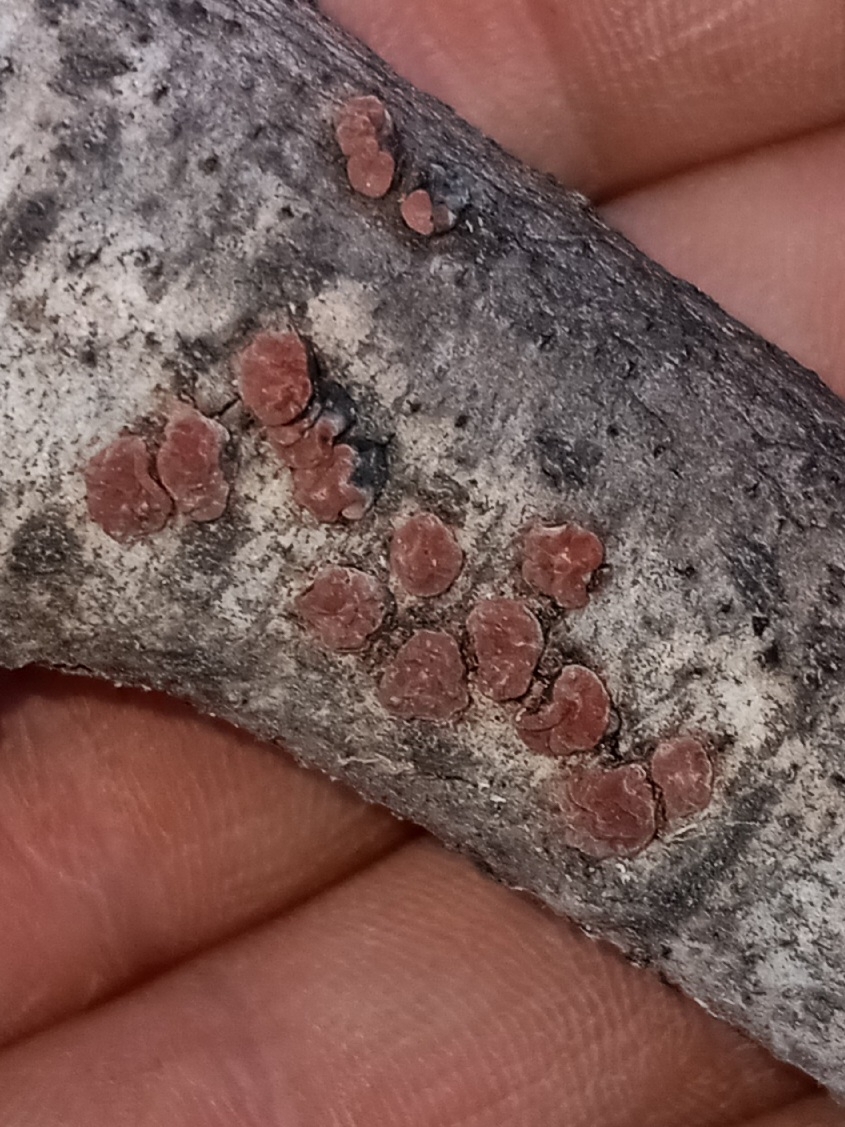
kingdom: Fungi
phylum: Basidiomycota
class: Agaricomycetes
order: Russulales
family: Peniophoraceae
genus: Peniophora
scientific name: Peniophora rufa
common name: Red tree brain fungus
